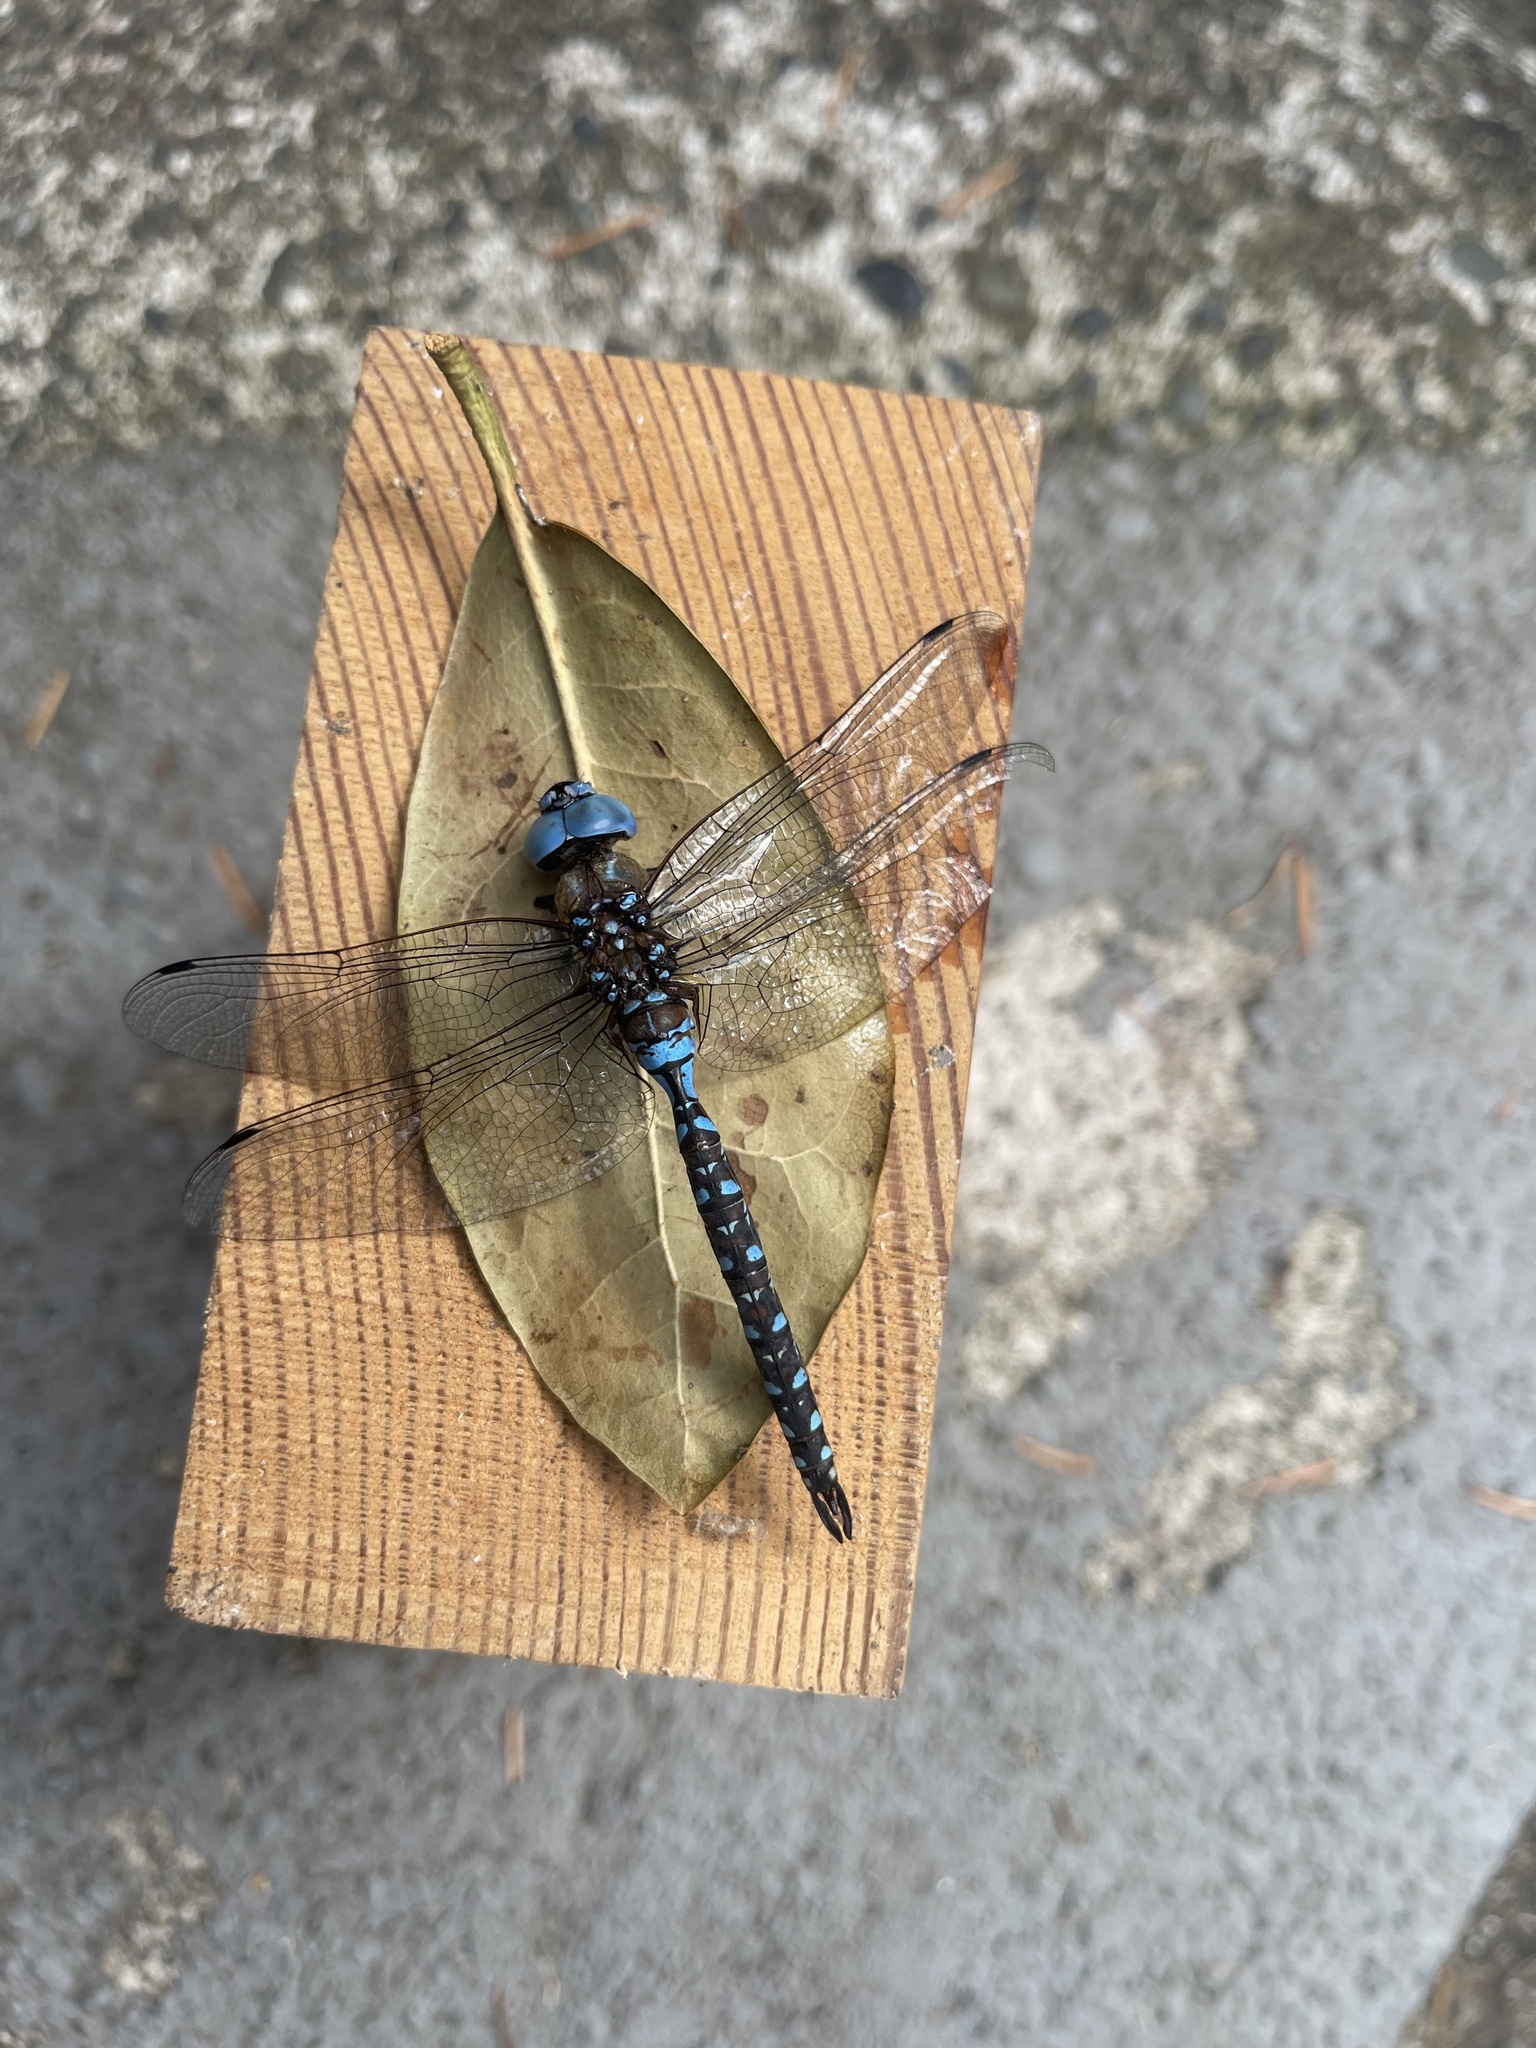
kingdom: Animalia
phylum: Arthropoda
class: Insecta
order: Odonata
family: Aeshnidae
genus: Rhionaeschna
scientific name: Rhionaeschna multicolor
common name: Blue-eyed darner
